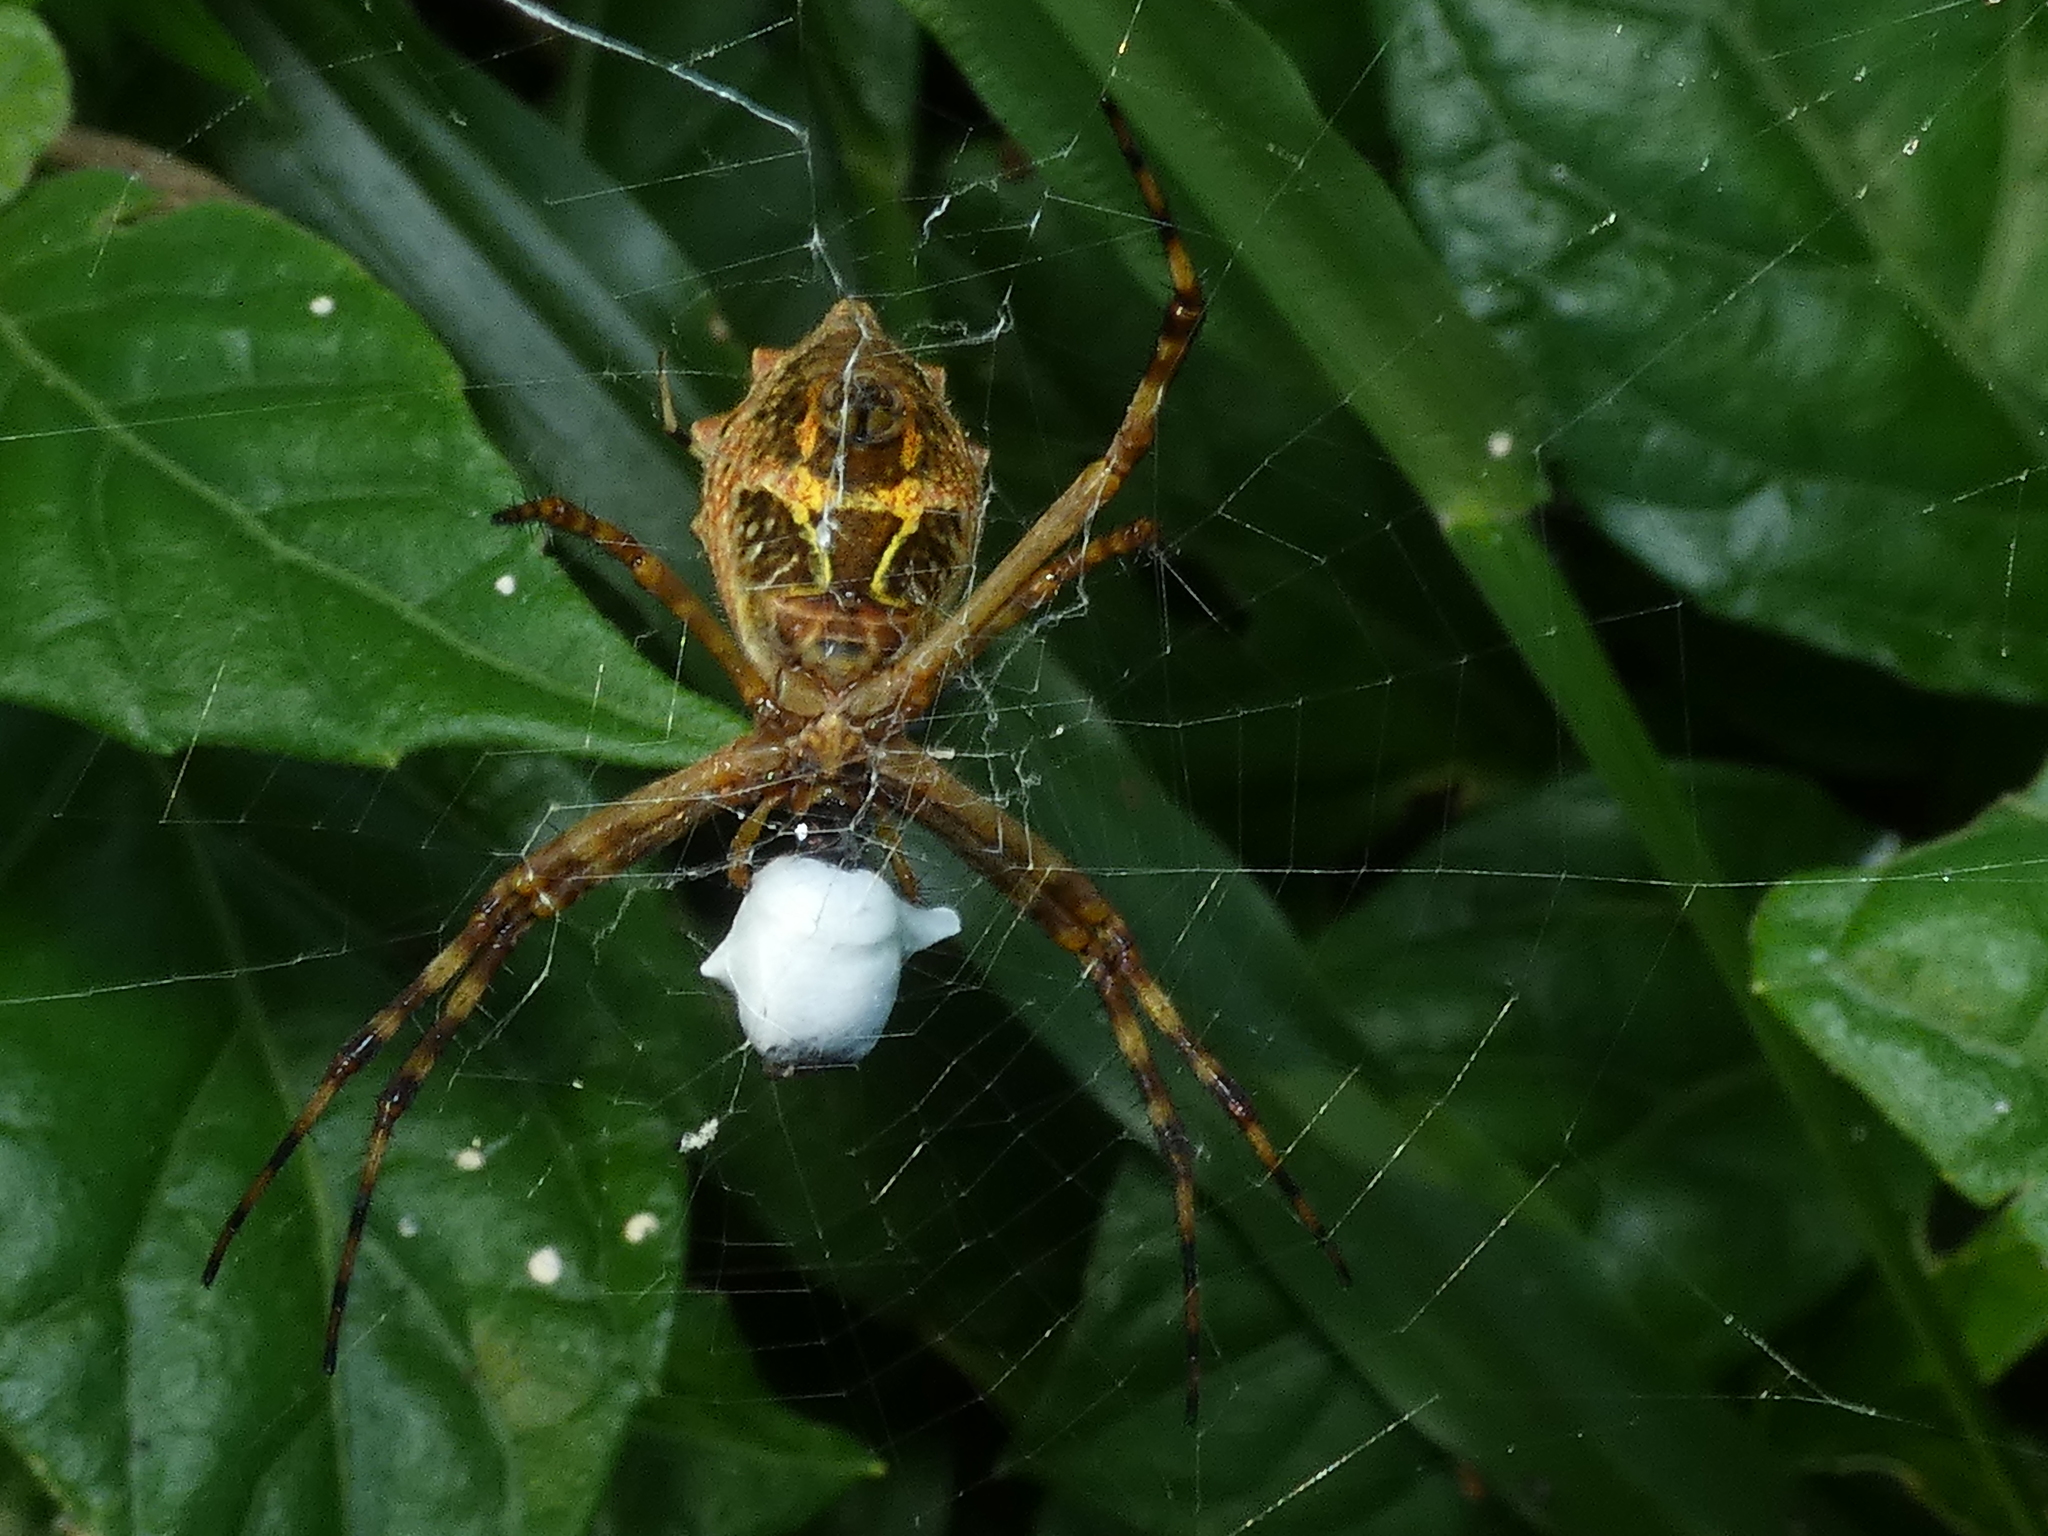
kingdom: Animalia
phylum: Arthropoda
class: Arachnida
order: Araneae
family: Araneidae
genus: Argiope
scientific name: Argiope argentata
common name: Orb weavers
